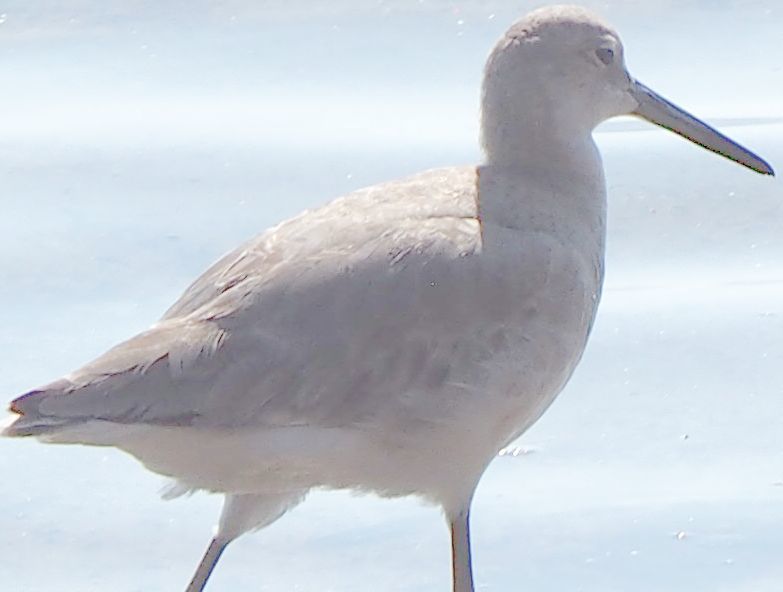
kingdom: Animalia
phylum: Chordata
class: Aves
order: Charadriiformes
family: Scolopacidae
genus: Tringa
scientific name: Tringa semipalmata
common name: Willet
